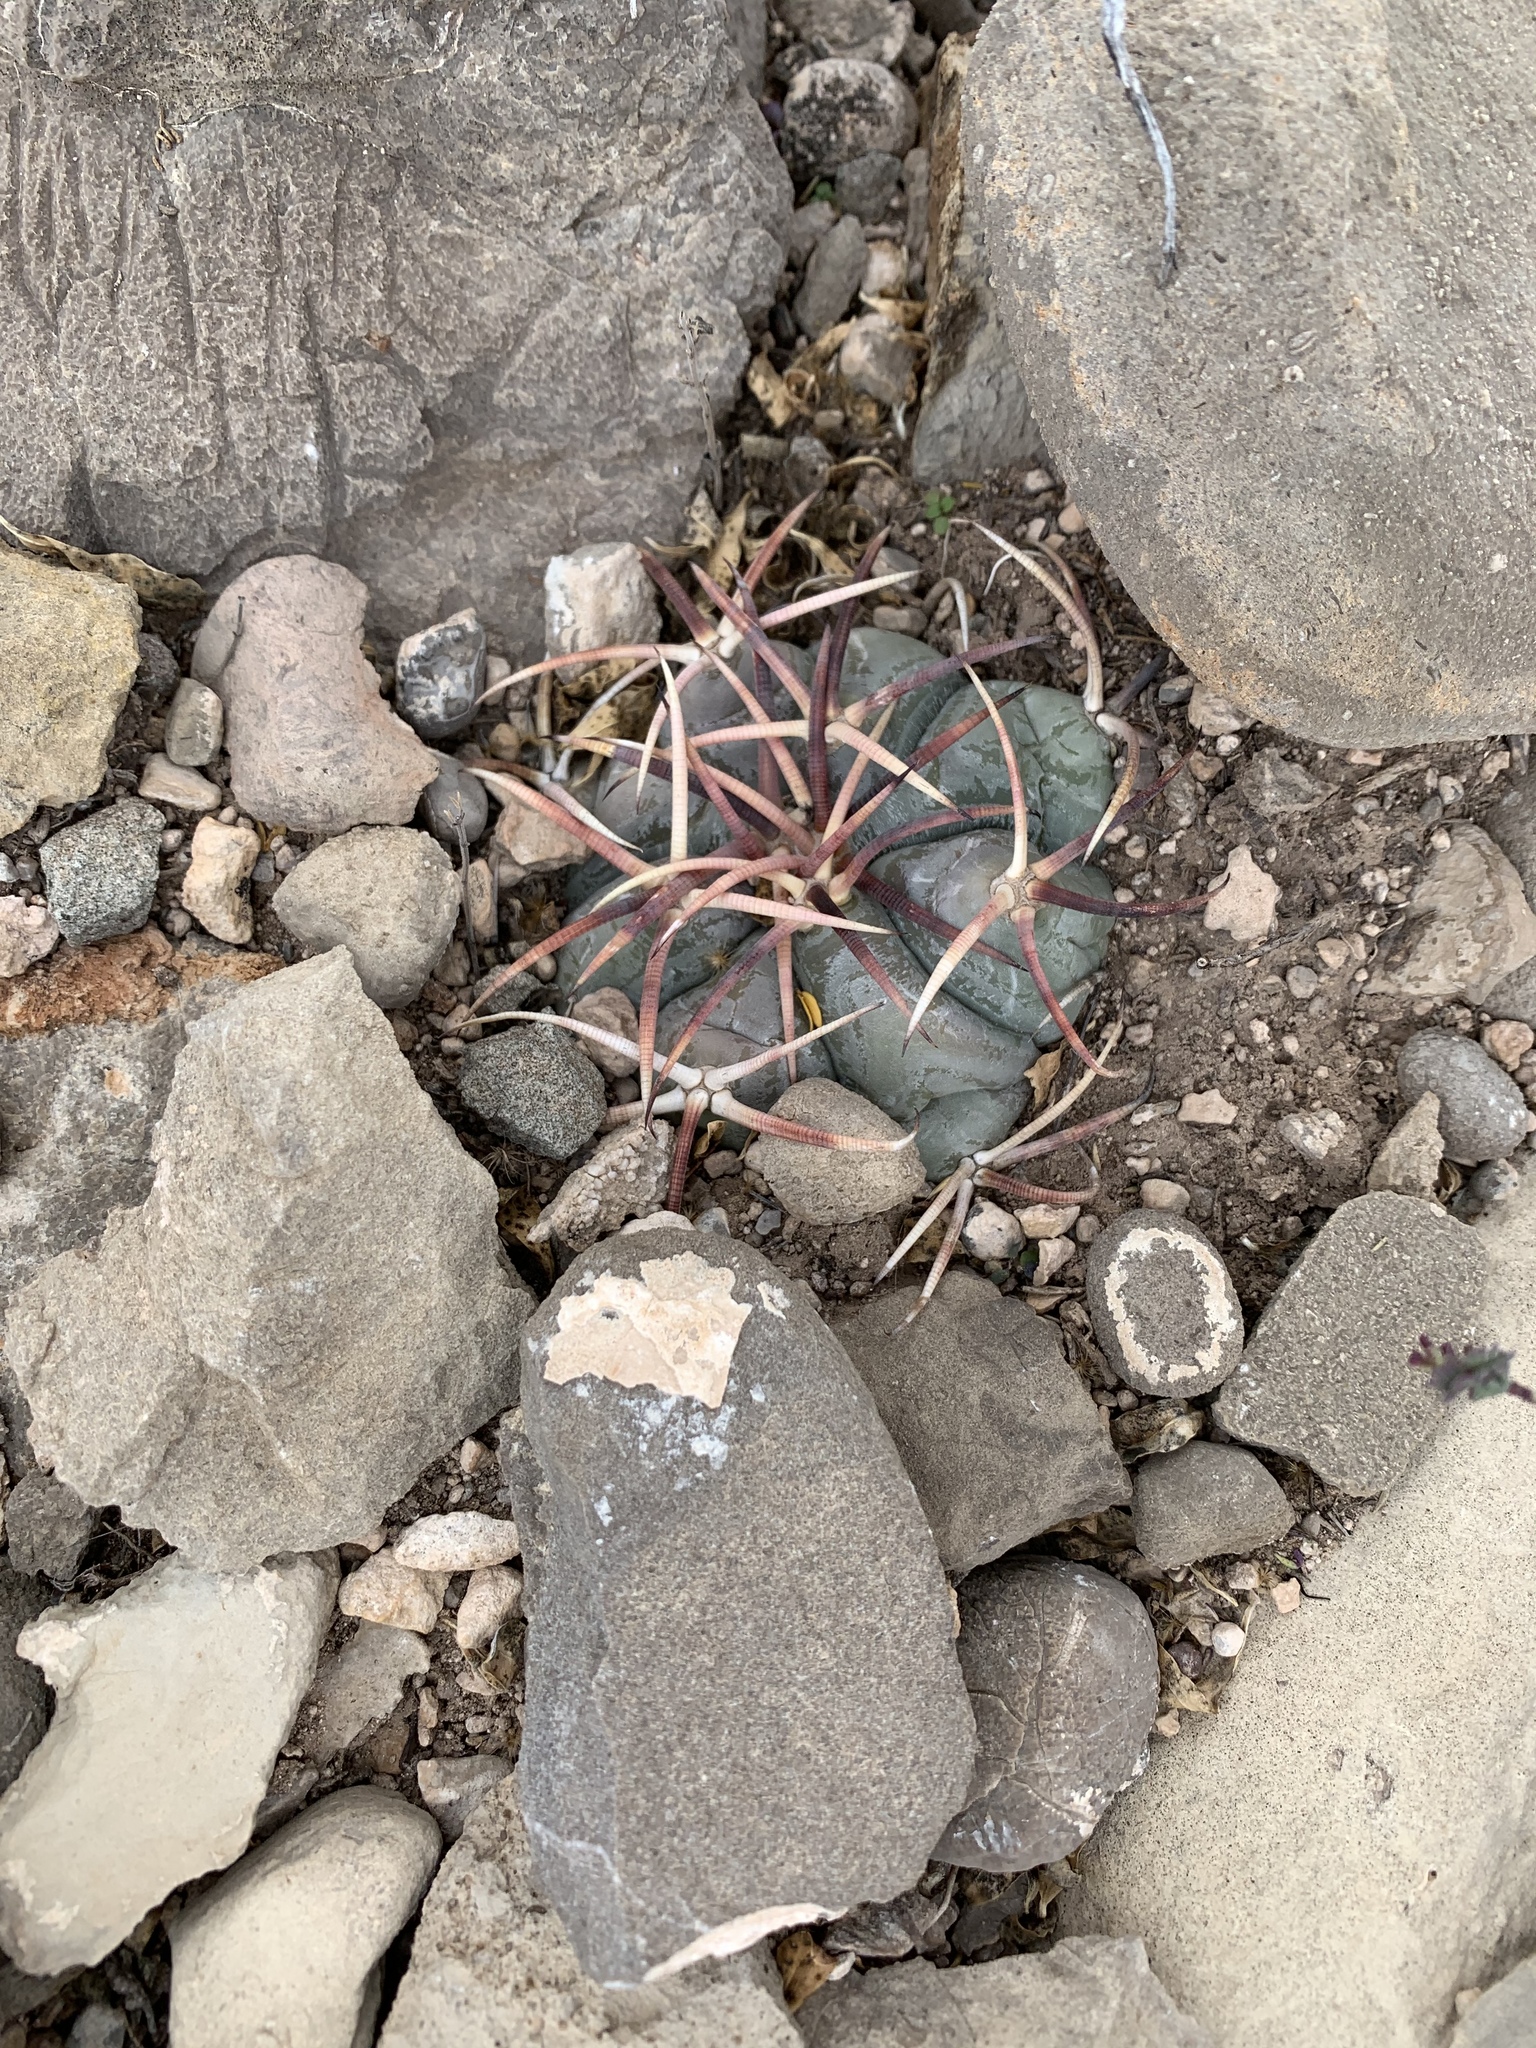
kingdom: Plantae
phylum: Tracheophyta
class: Magnoliopsida
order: Caryophyllales
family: Cactaceae
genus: Echinocactus
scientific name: Echinocactus horizonthalonius
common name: Devilshead
